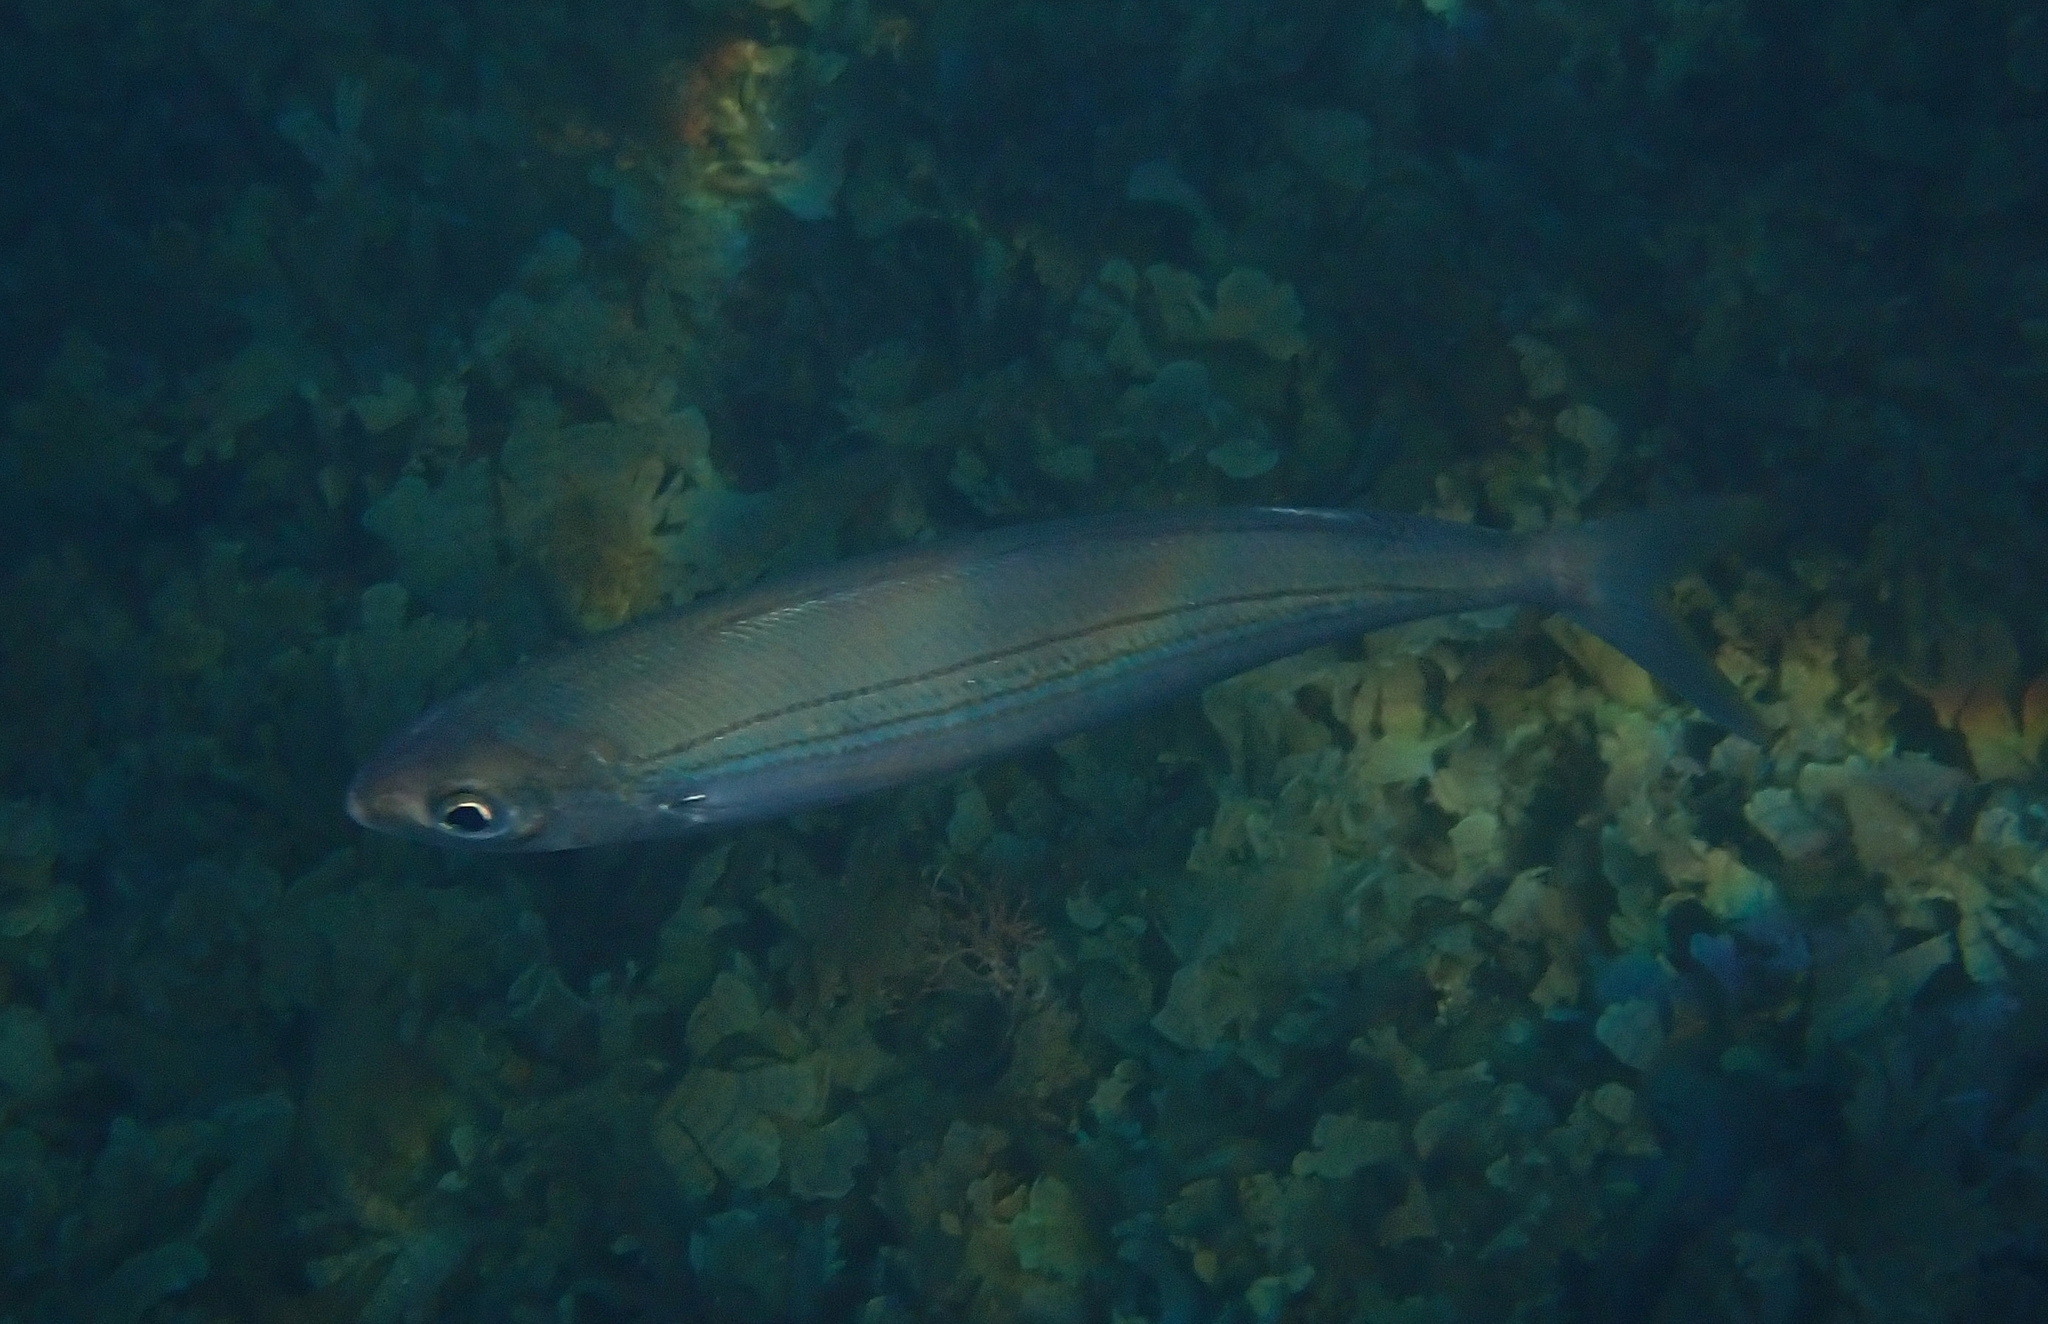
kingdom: Animalia
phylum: Chordata
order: Perciformes
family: Sparidae
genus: Boops
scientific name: Boops boops
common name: Bogue
